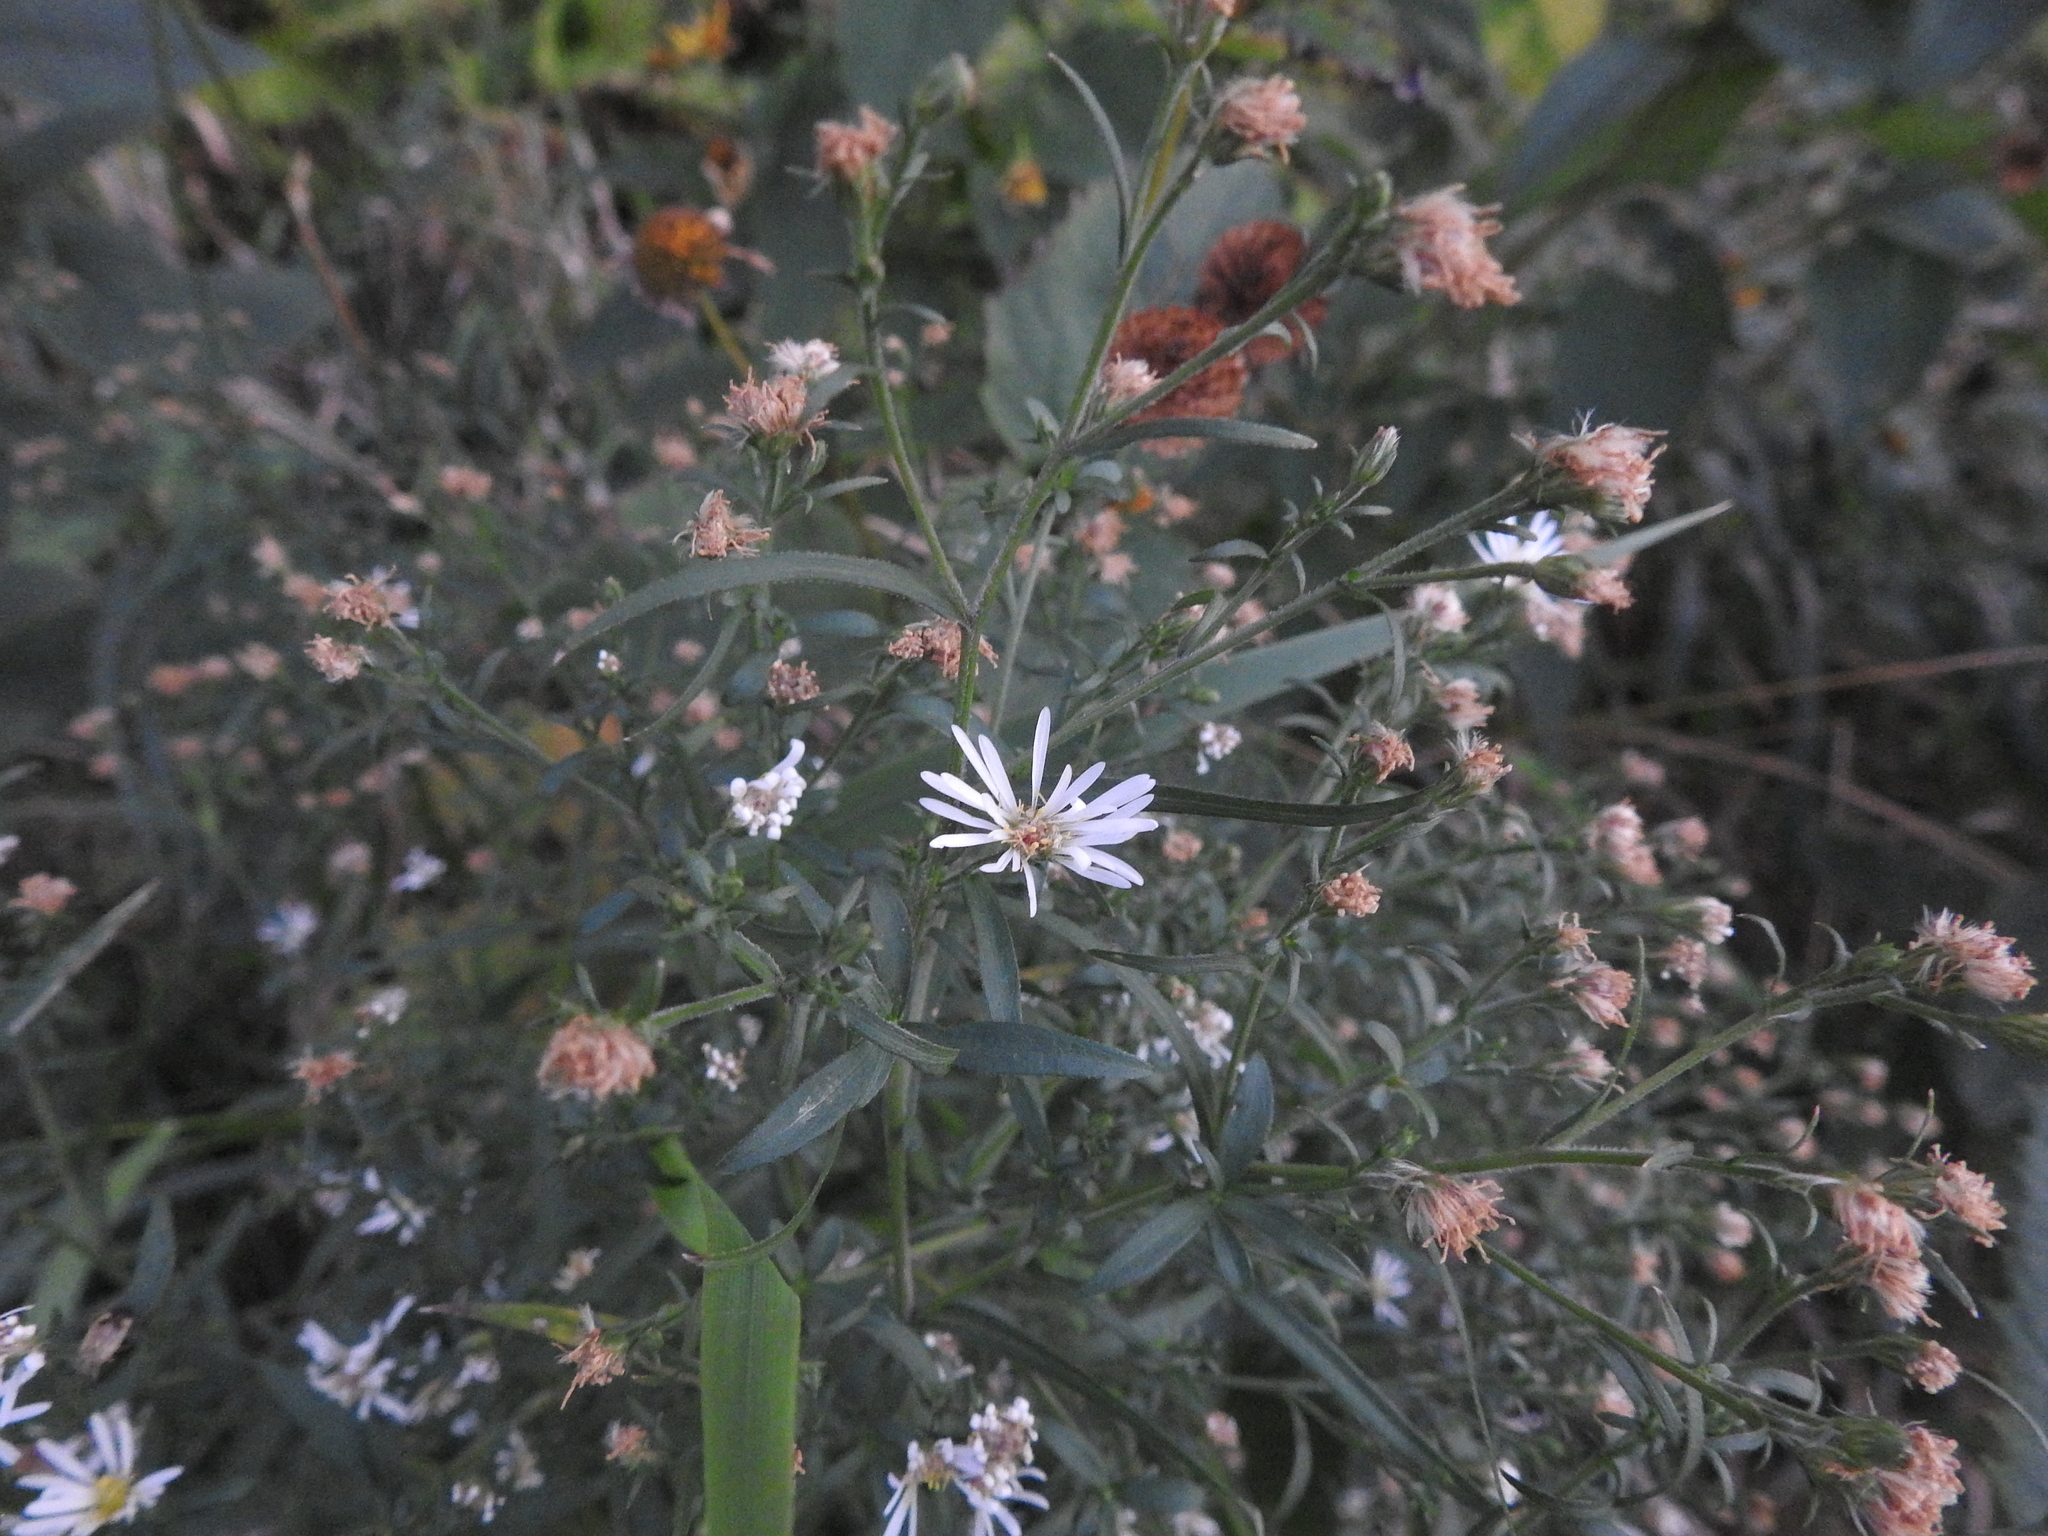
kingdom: Plantae
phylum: Tracheophyta
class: Magnoliopsida
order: Asterales
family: Asteraceae
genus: Symphyotrichum
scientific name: Symphyotrichum lanceolatum
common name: Panicled aster
